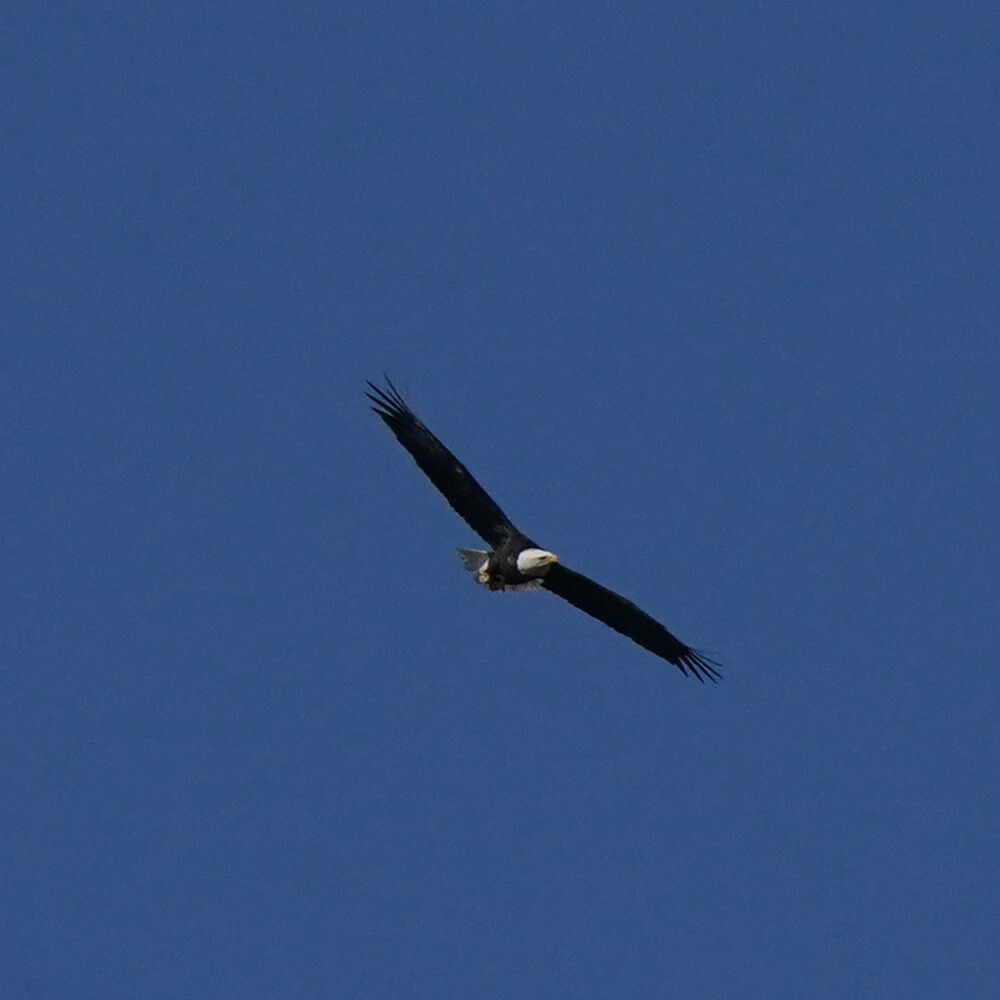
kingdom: Animalia
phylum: Chordata
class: Aves
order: Accipitriformes
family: Accipitridae
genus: Haliaeetus
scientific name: Haliaeetus leucocephalus
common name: Bald eagle
